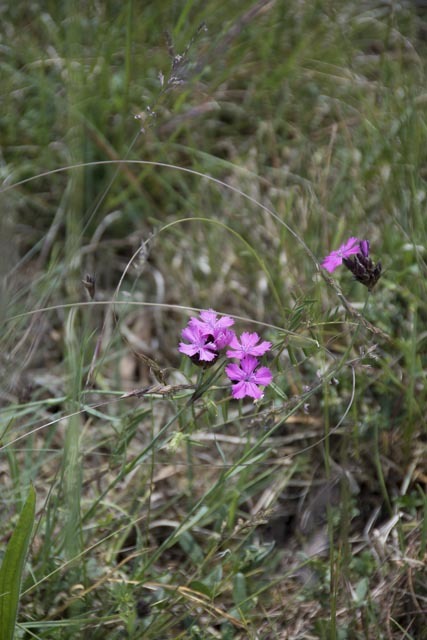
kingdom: Plantae
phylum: Tracheophyta
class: Magnoliopsida
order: Caryophyllales
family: Caryophyllaceae
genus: Dianthus
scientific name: Dianthus carthusianorum
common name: Carthusian pink
